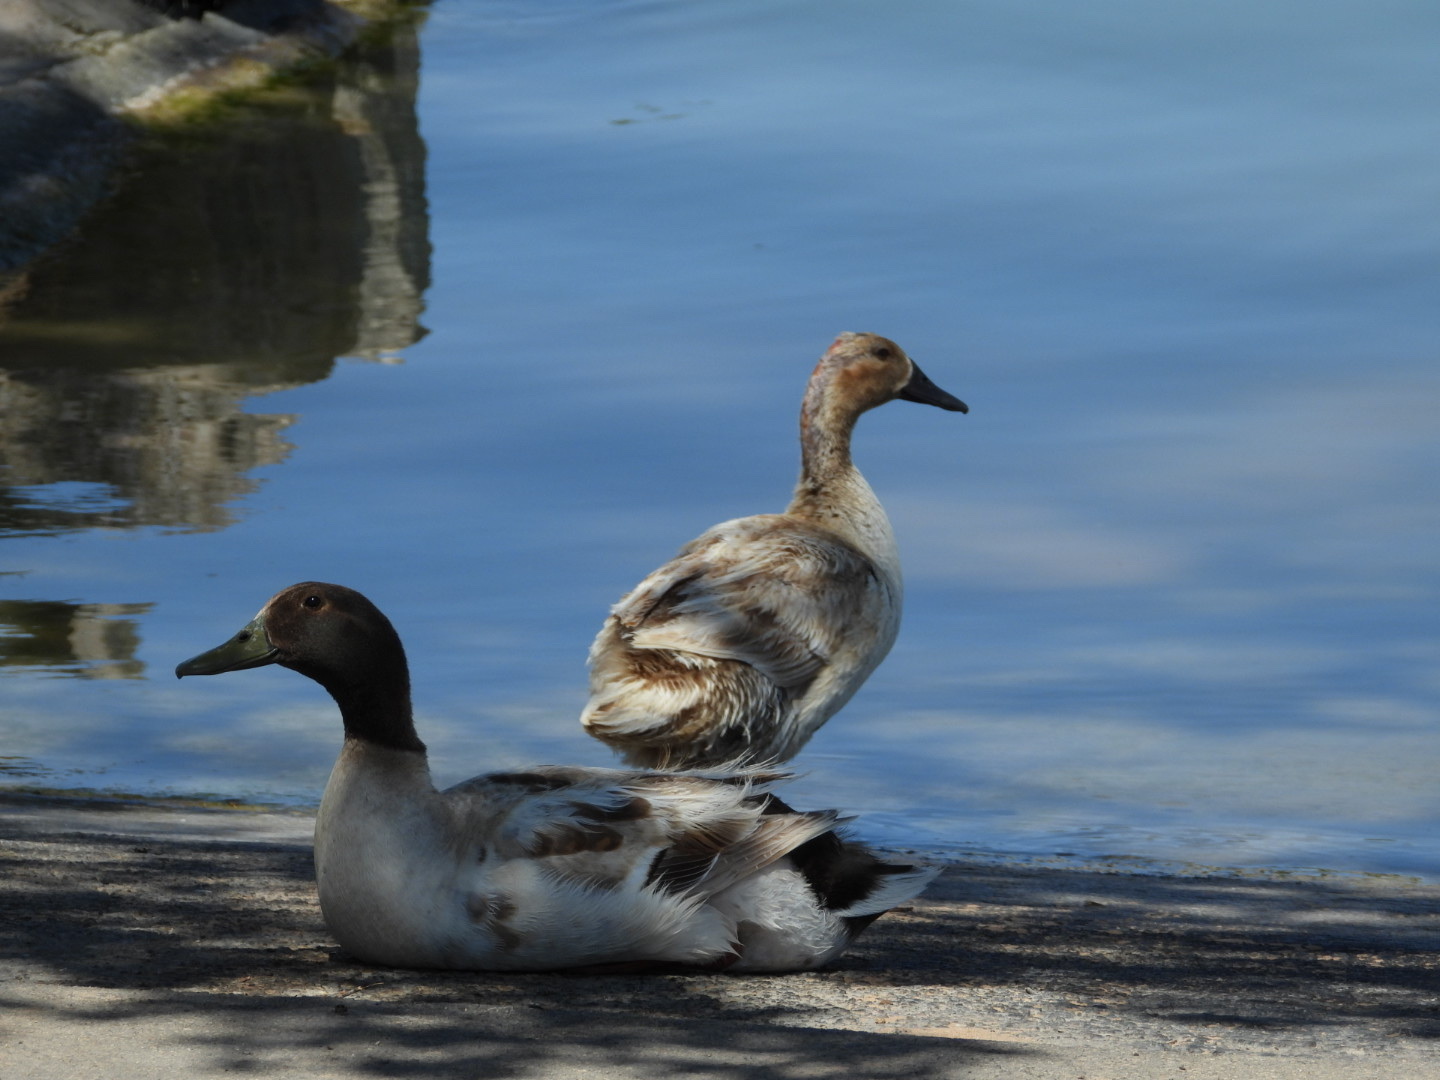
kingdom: Animalia
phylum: Chordata
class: Aves
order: Anseriformes
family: Anatidae
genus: Anas
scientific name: Anas platyrhynchos
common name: Mallard
